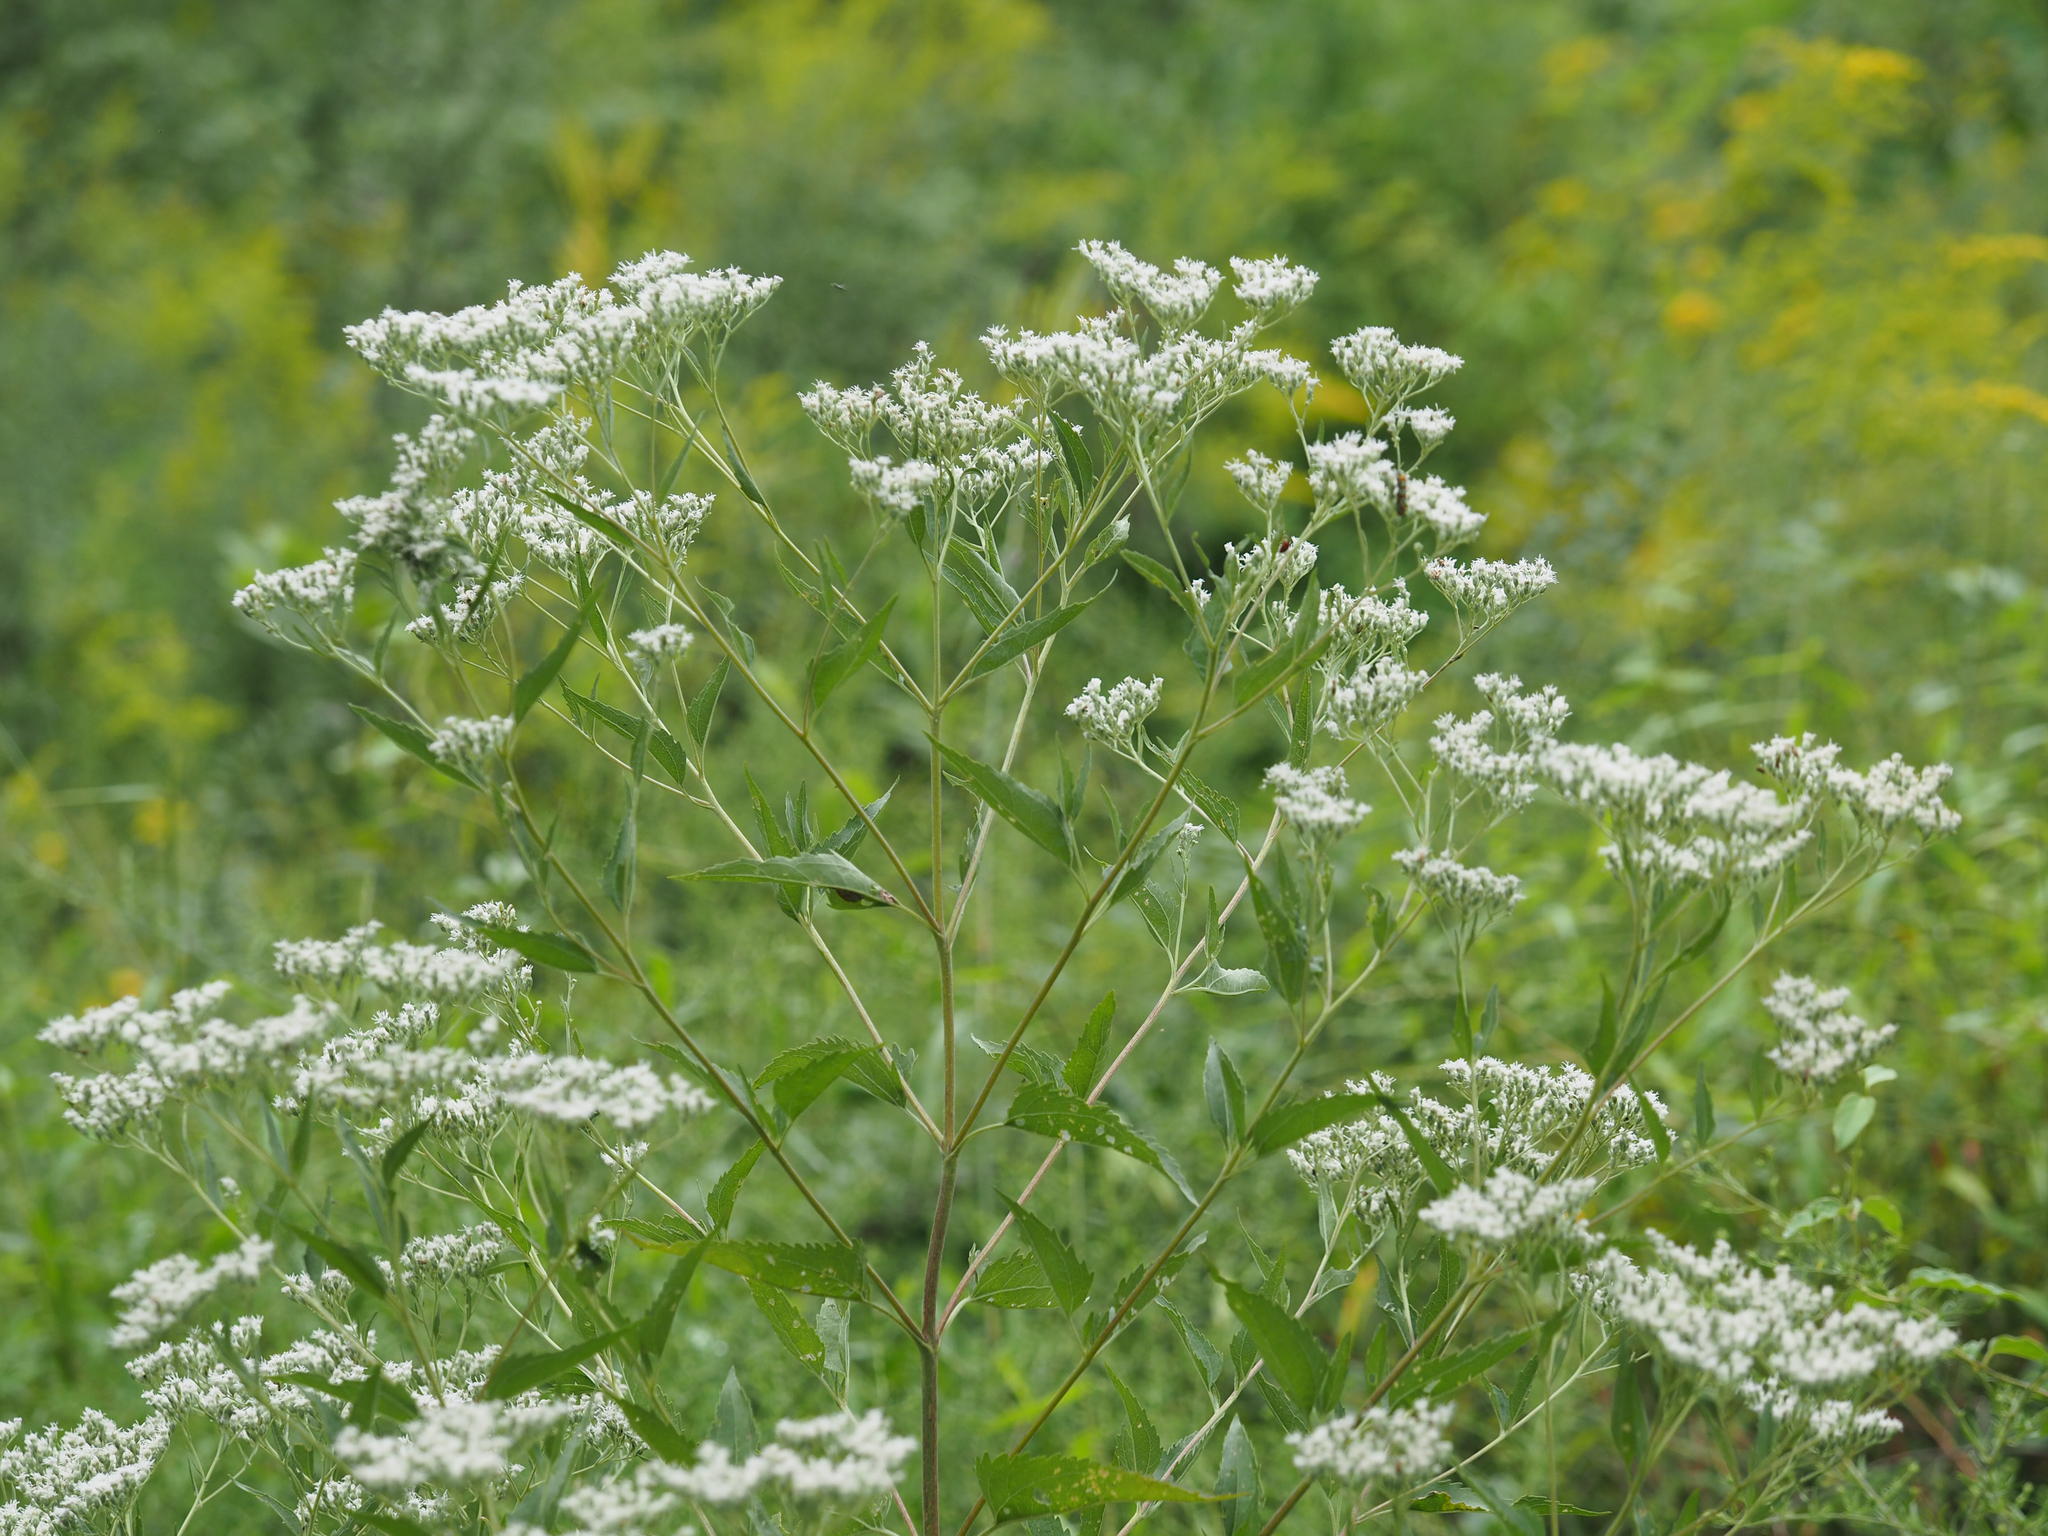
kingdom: Plantae
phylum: Tracheophyta
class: Magnoliopsida
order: Asterales
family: Asteraceae
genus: Eupatorium
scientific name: Eupatorium serotinum
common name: Late boneset
